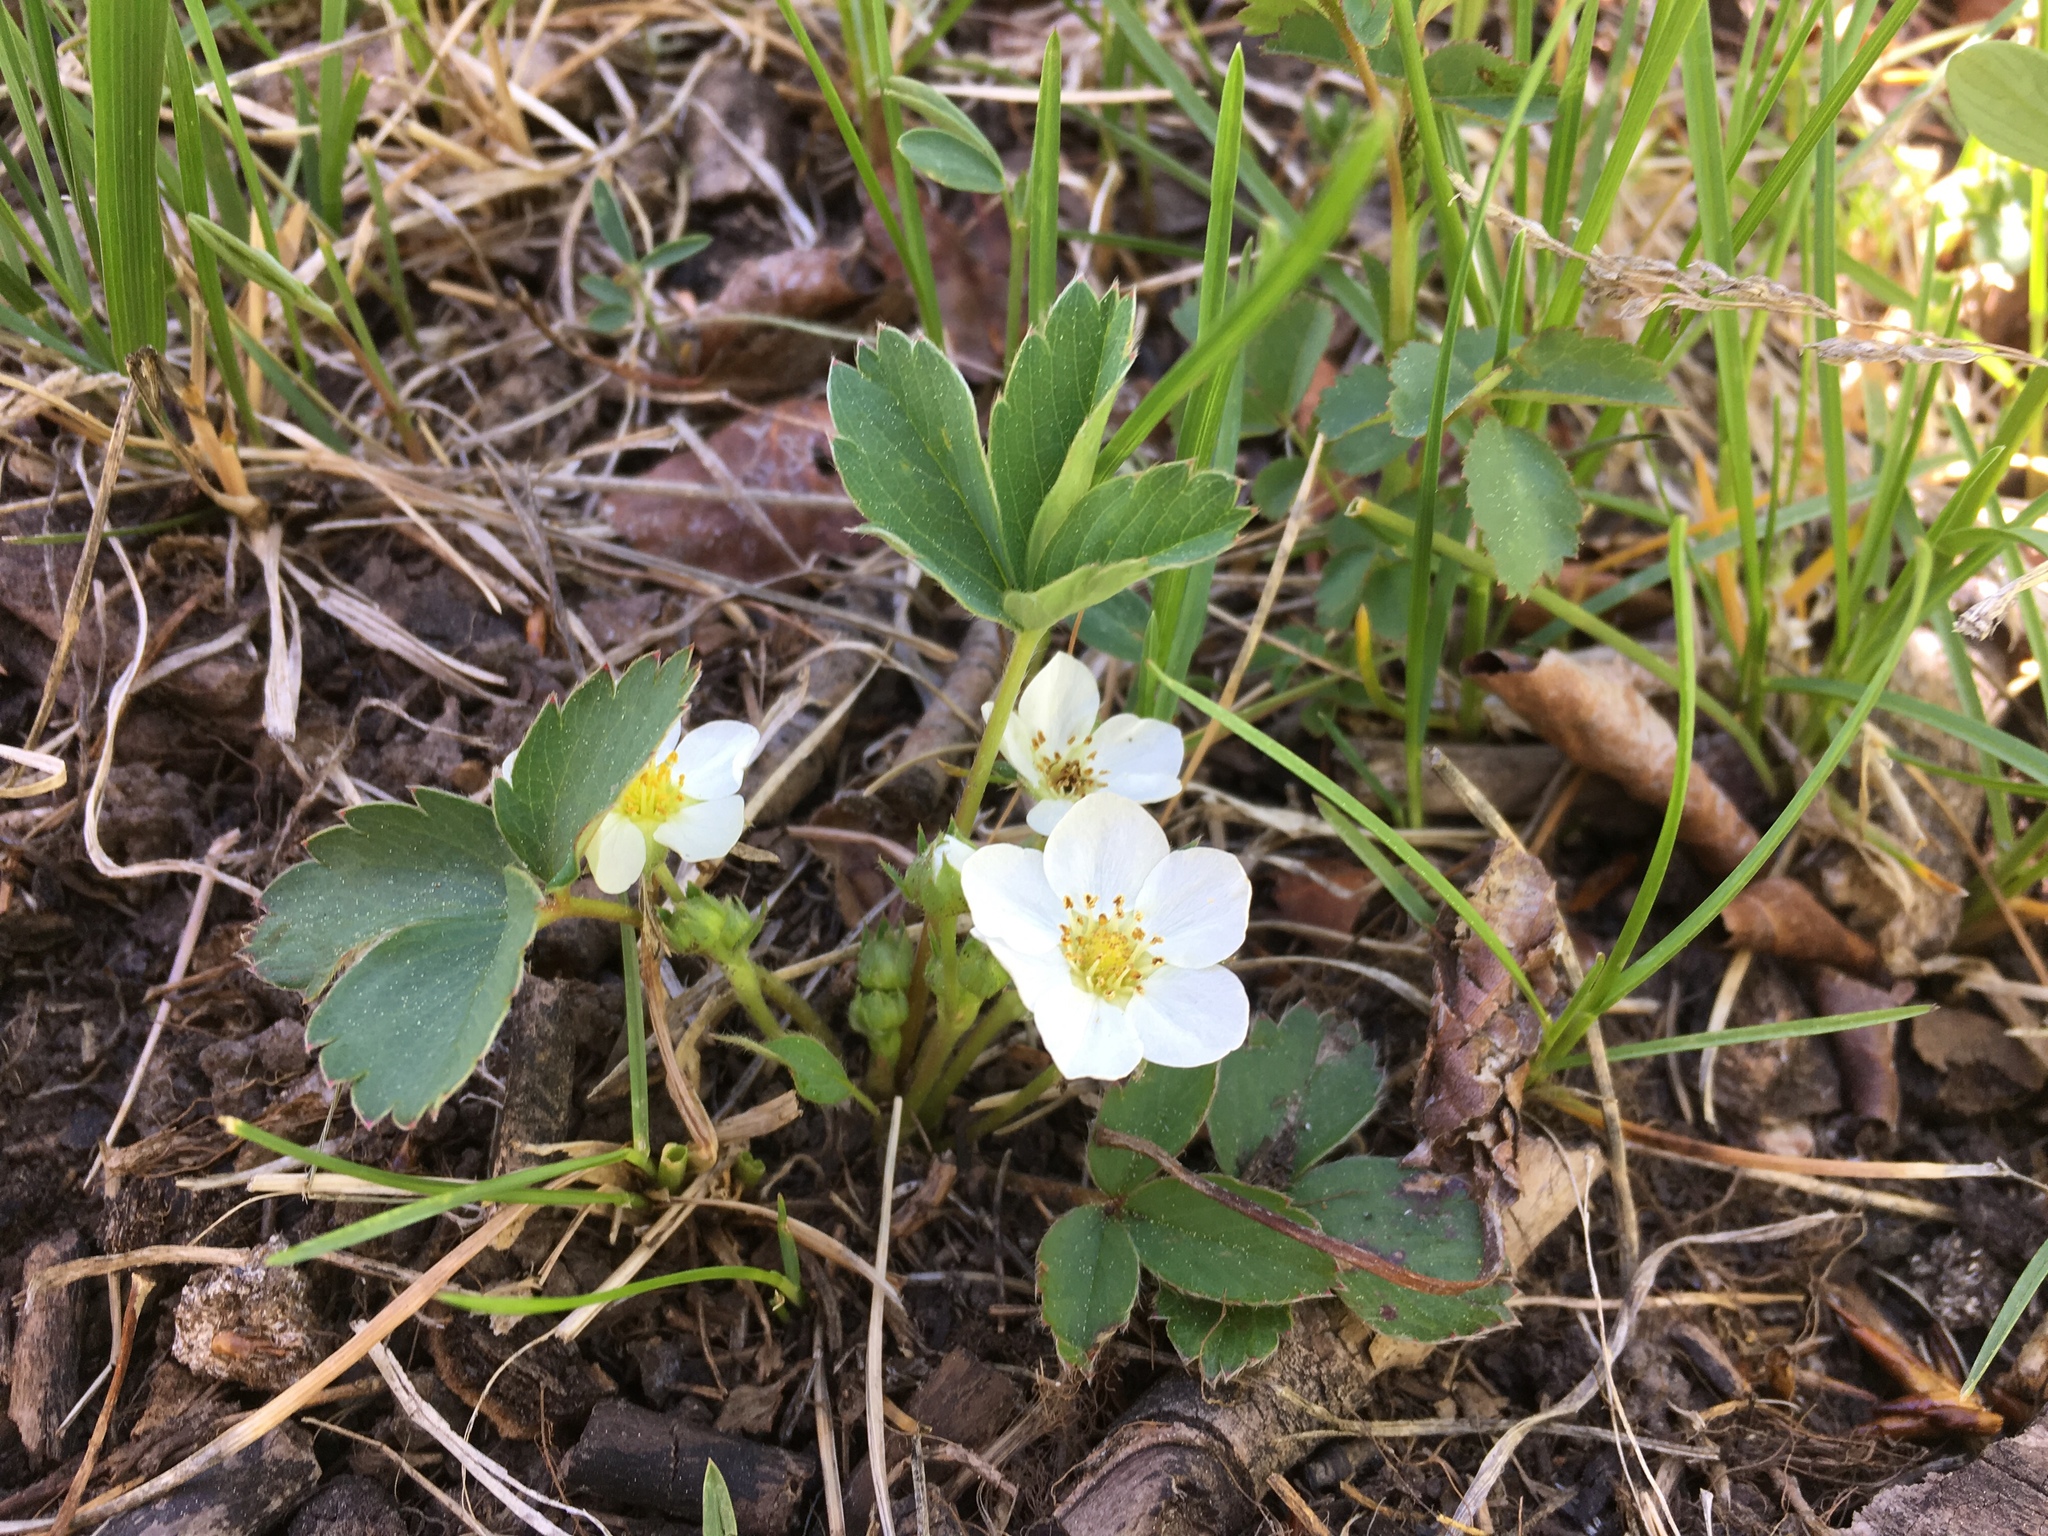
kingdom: Plantae
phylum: Tracheophyta
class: Magnoliopsida
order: Rosales
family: Rosaceae
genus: Fragaria
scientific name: Fragaria virginiana
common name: Thickleaved wild strawberry
